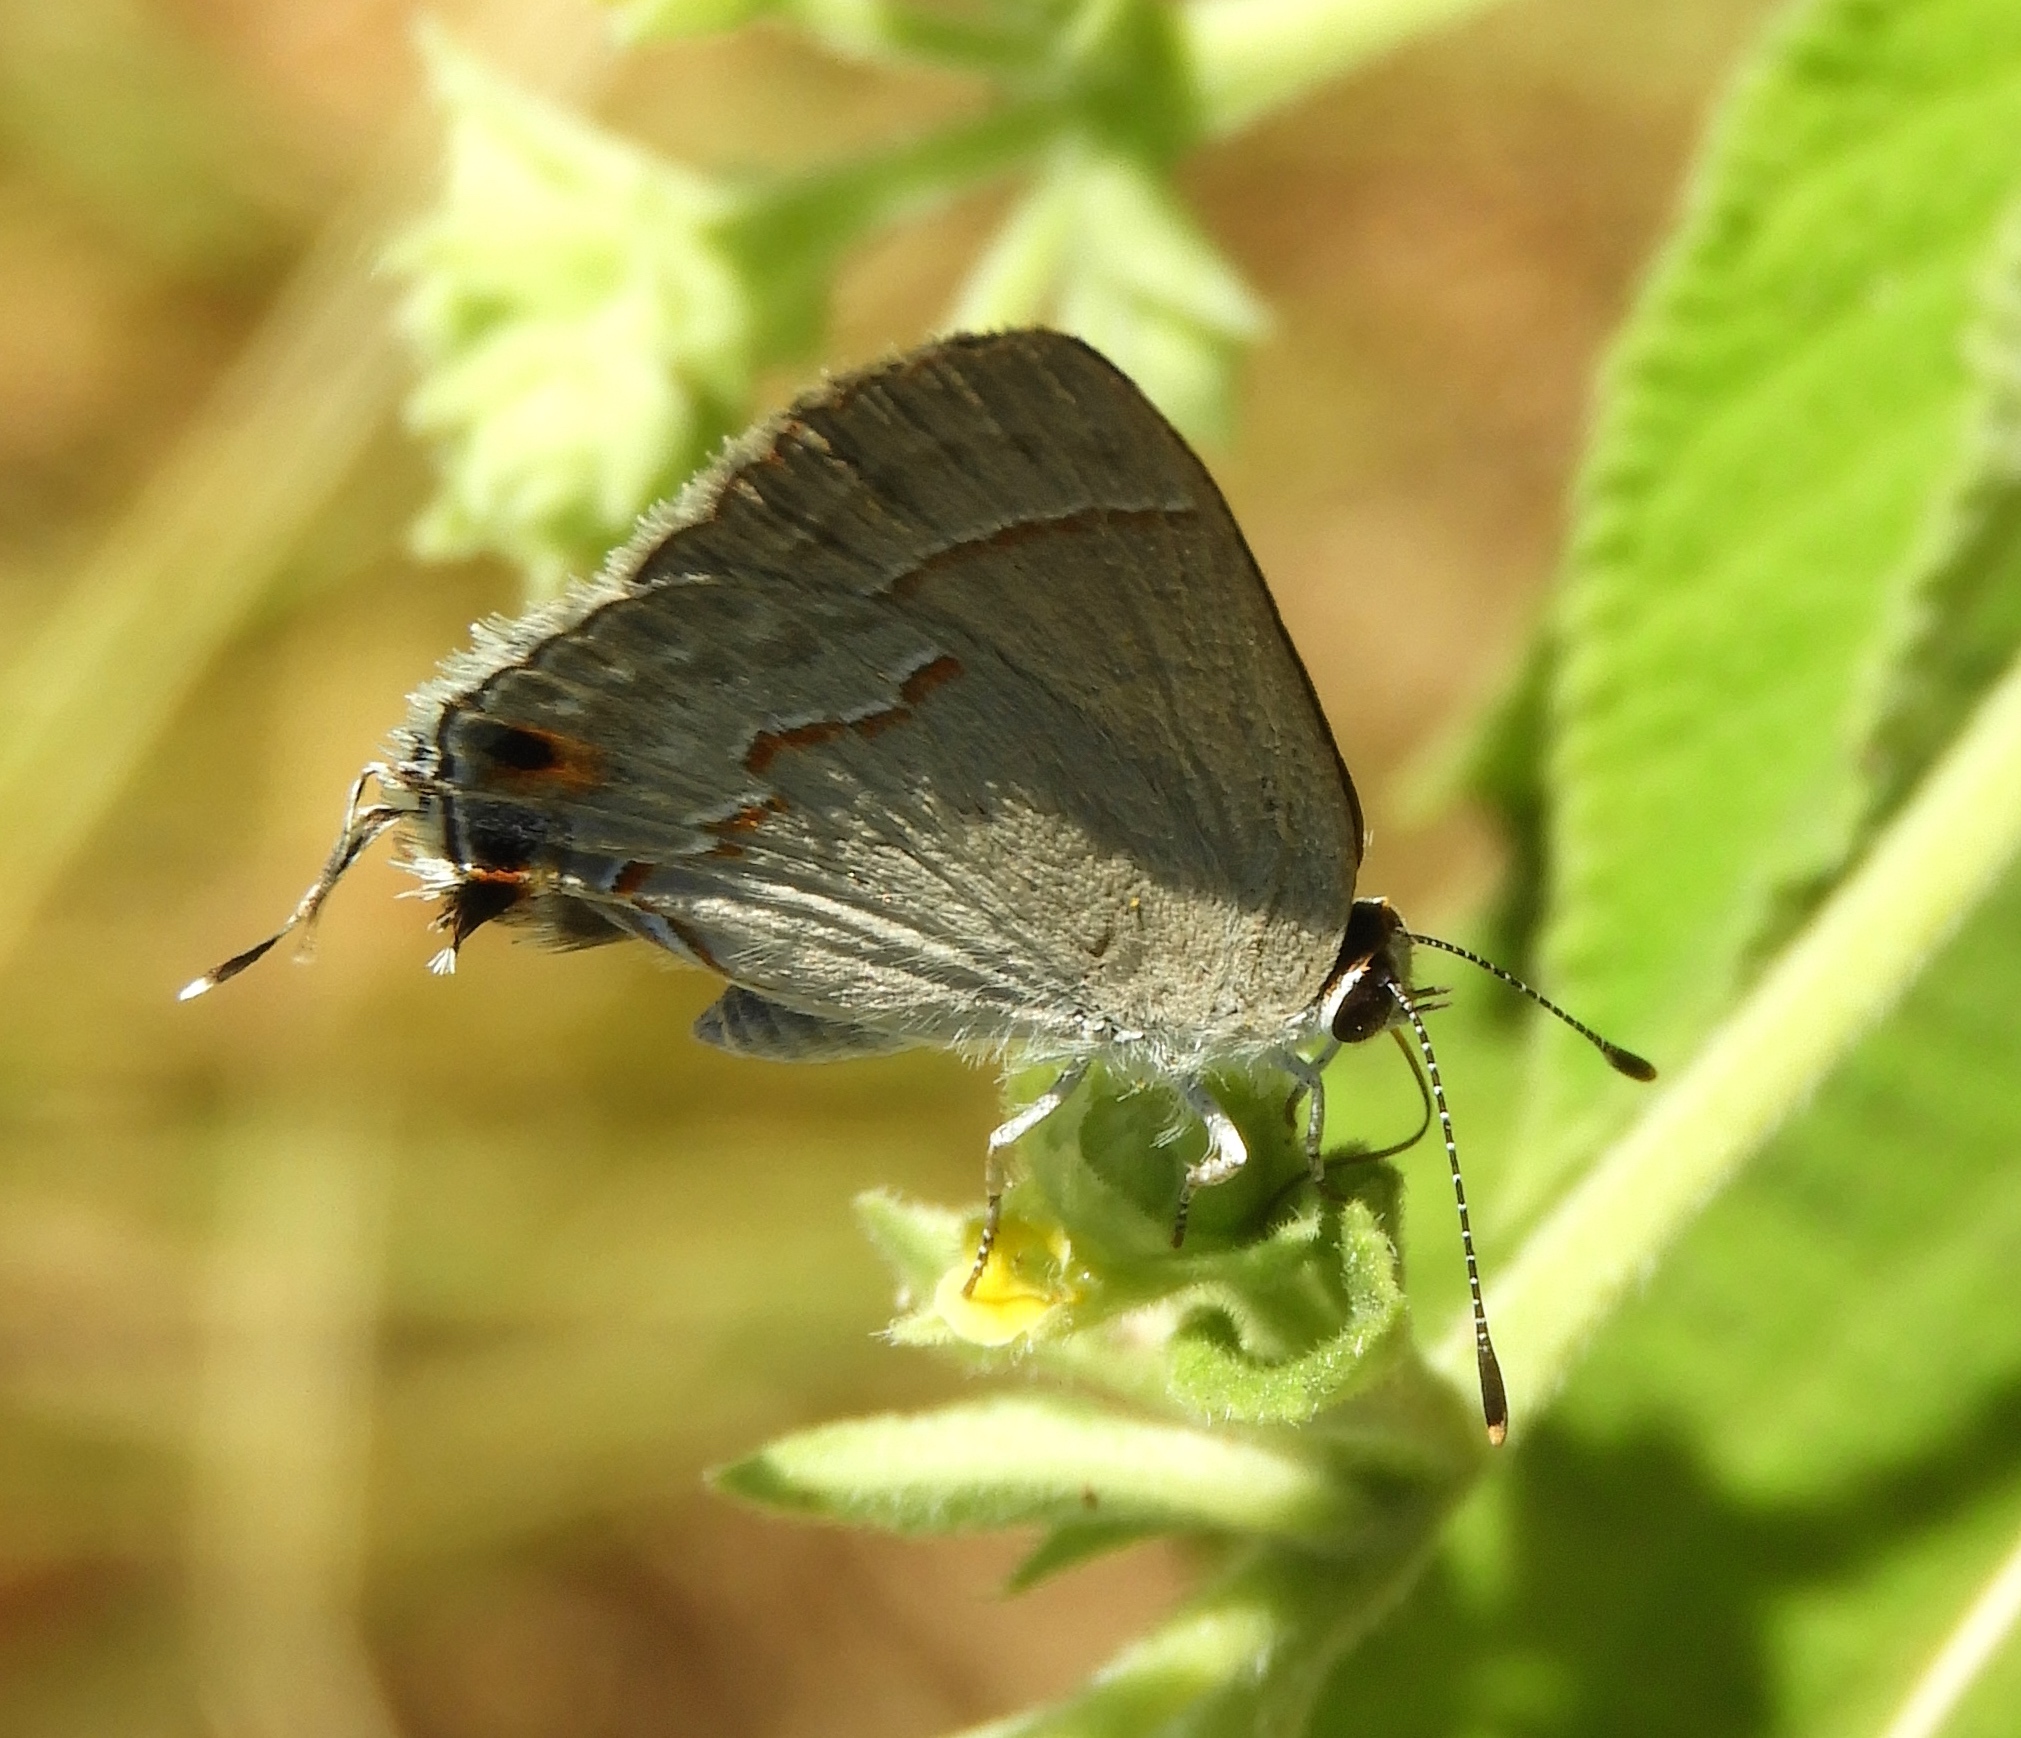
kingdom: Animalia
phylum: Arthropoda
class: Insecta
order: Lepidoptera
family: Lycaenidae
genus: Thecla
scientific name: Thecla bebrycia
